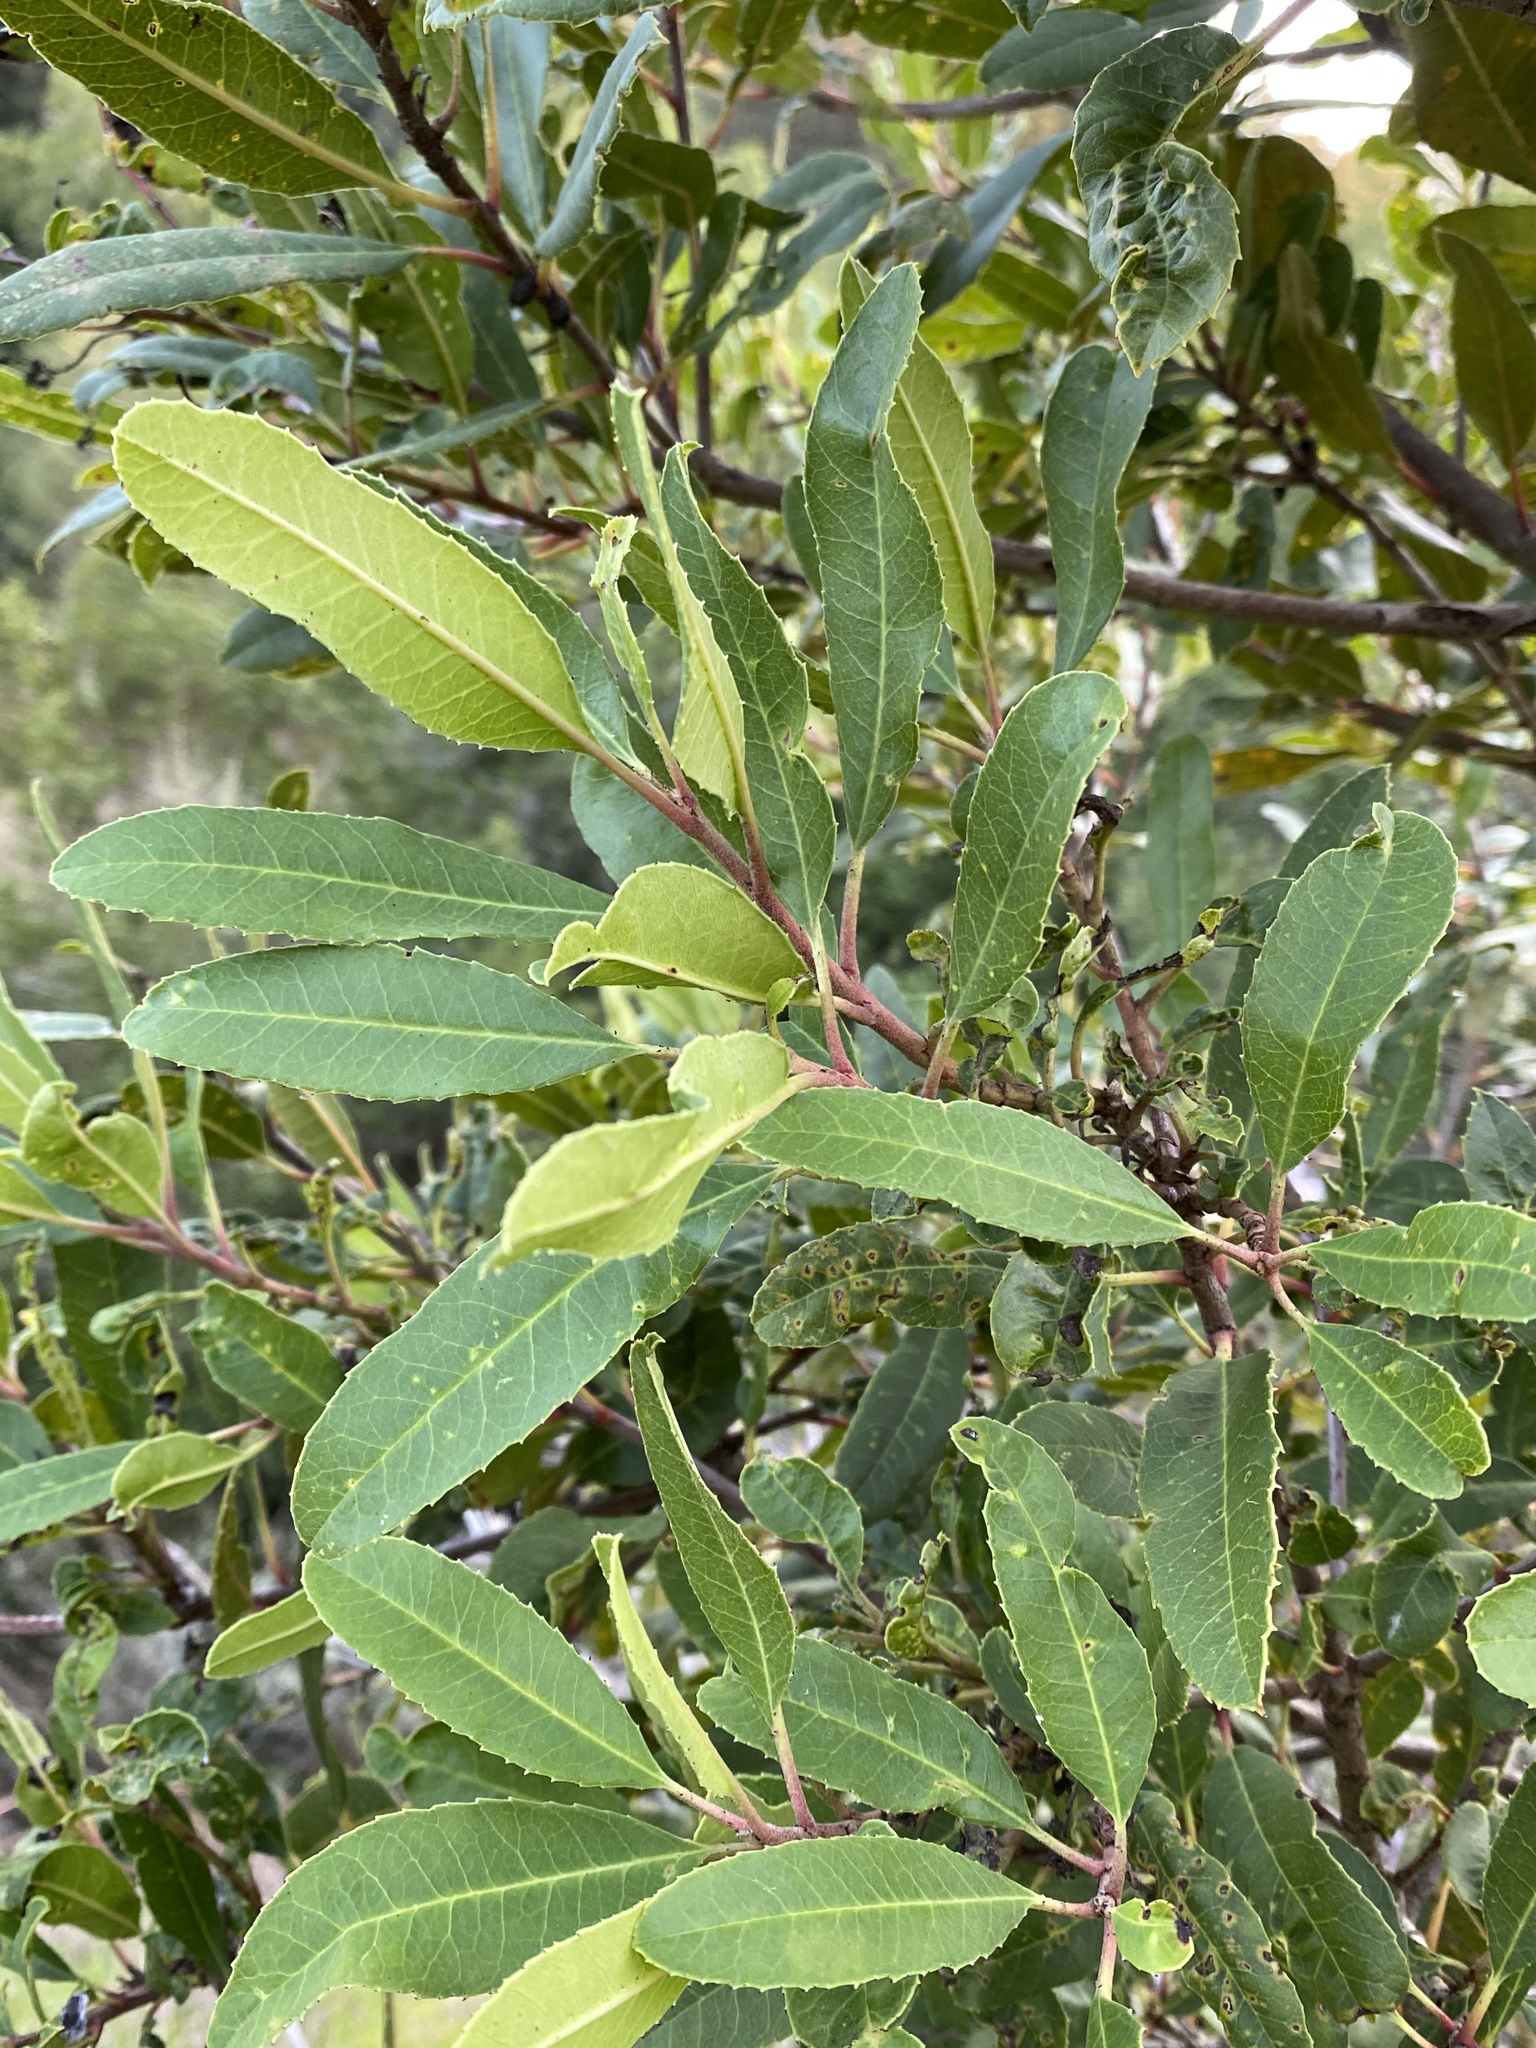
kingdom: Plantae
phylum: Tracheophyta
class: Magnoliopsida
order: Rosales
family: Rosaceae
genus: Heteromeles
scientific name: Heteromeles arbutifolia
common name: California-holly
